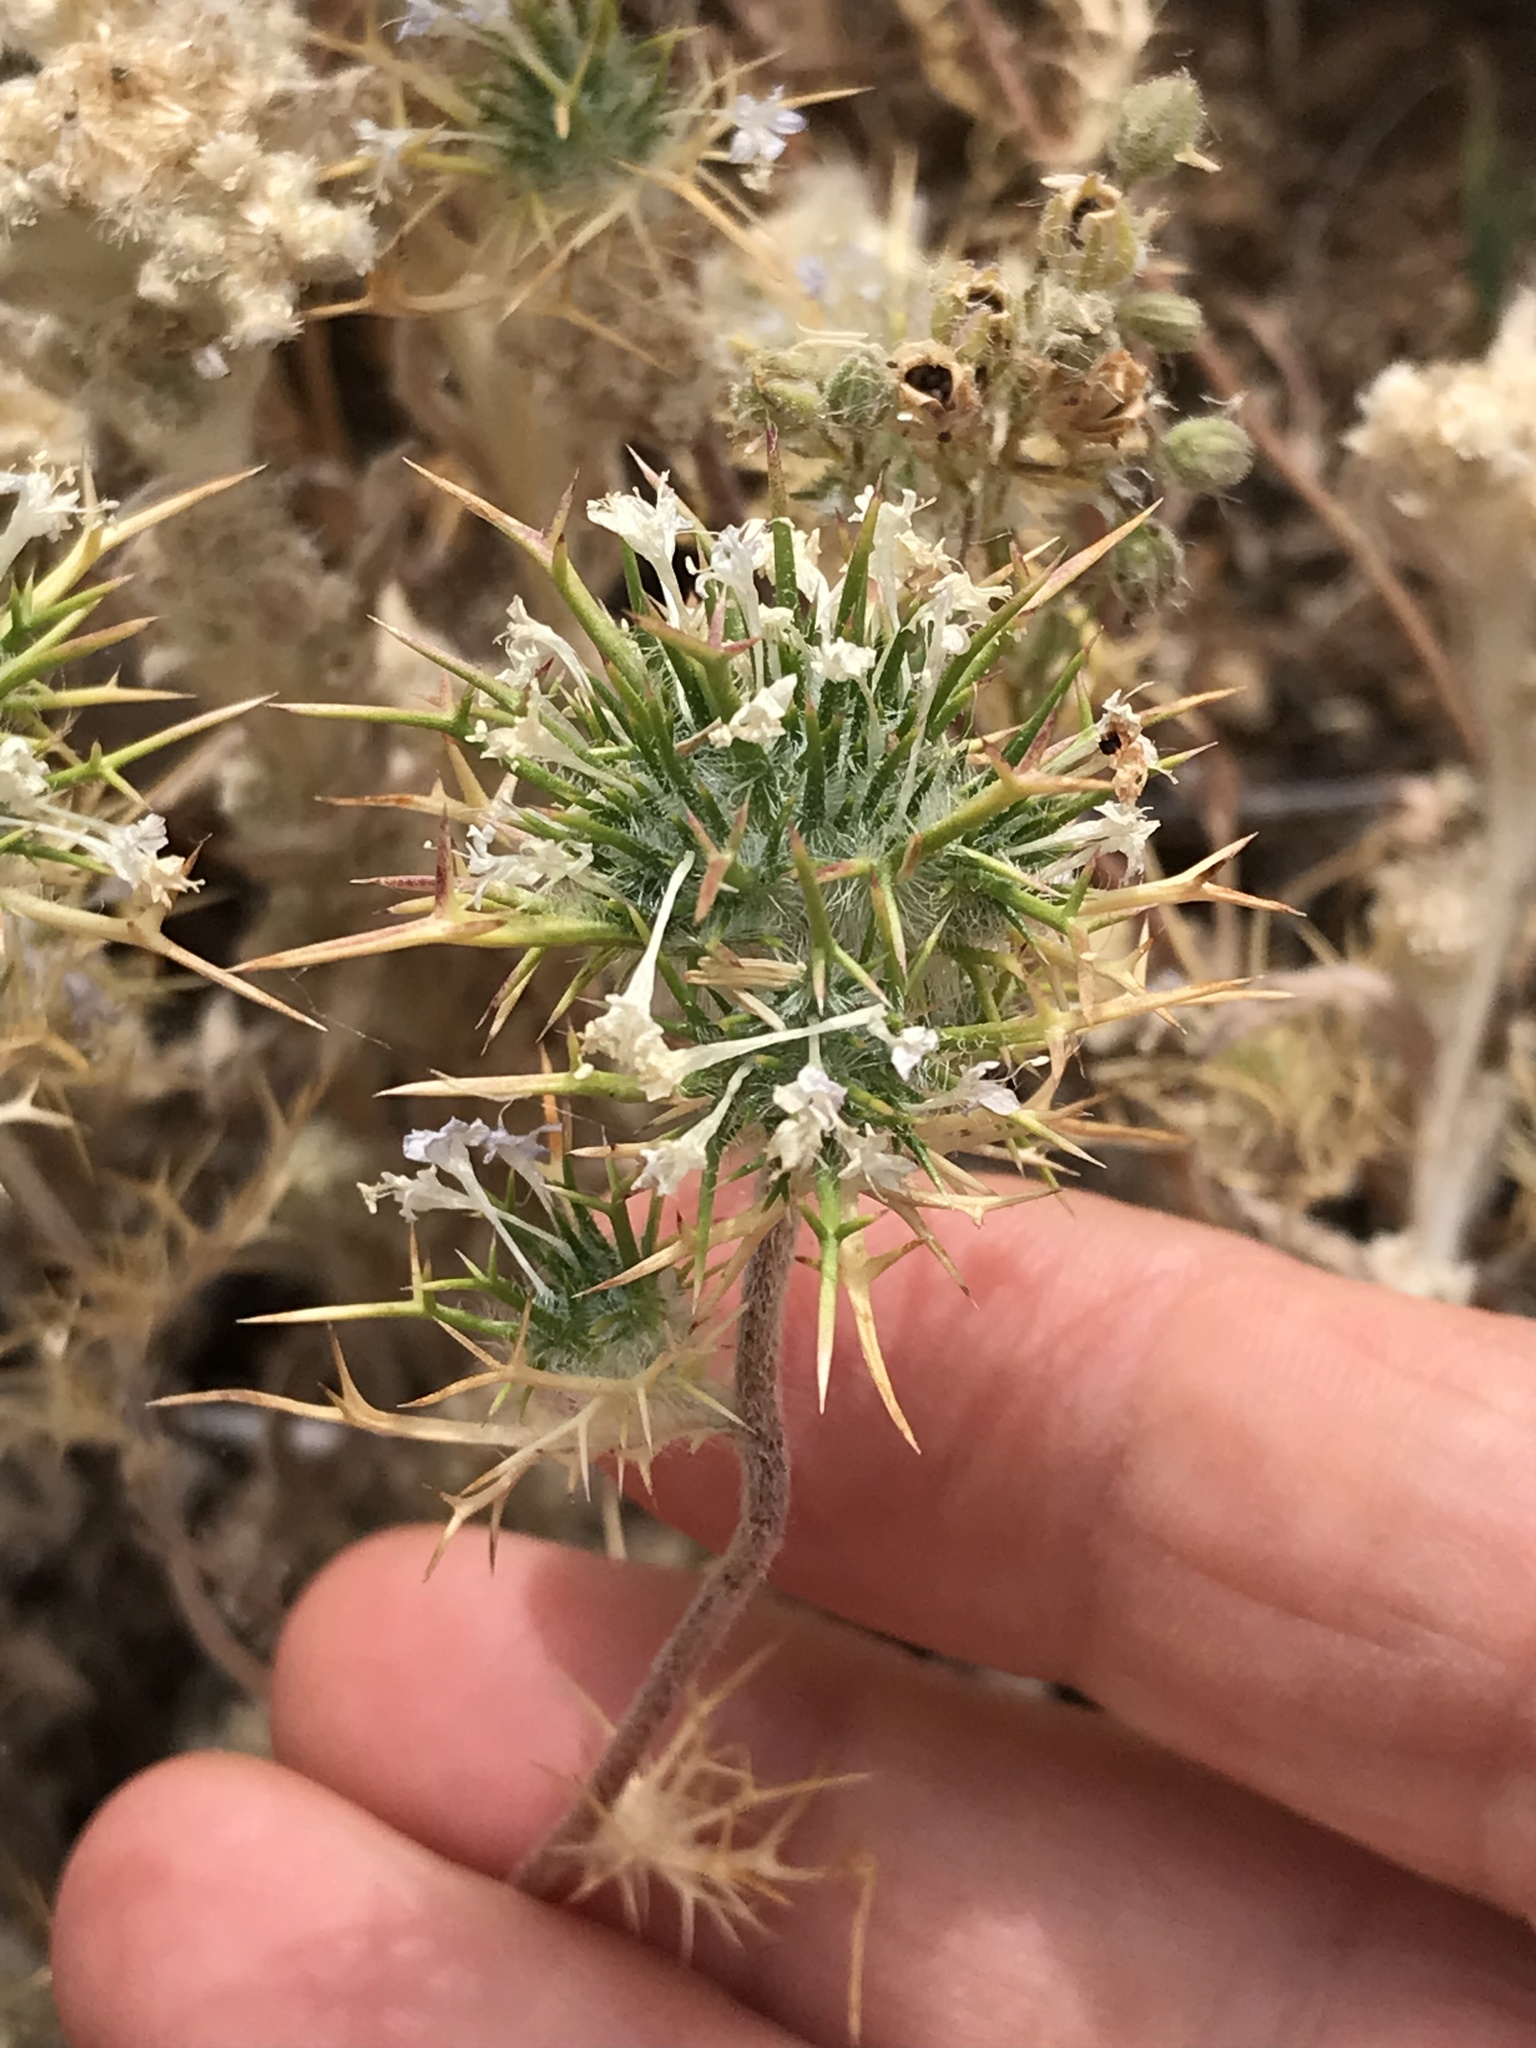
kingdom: Plantae
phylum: Tracheophyta
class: Magnoliopsida
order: Ericales
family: Polemoniaceae
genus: Navarretia
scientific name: Navarretia intertexta
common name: Needle-leaved navarretia
